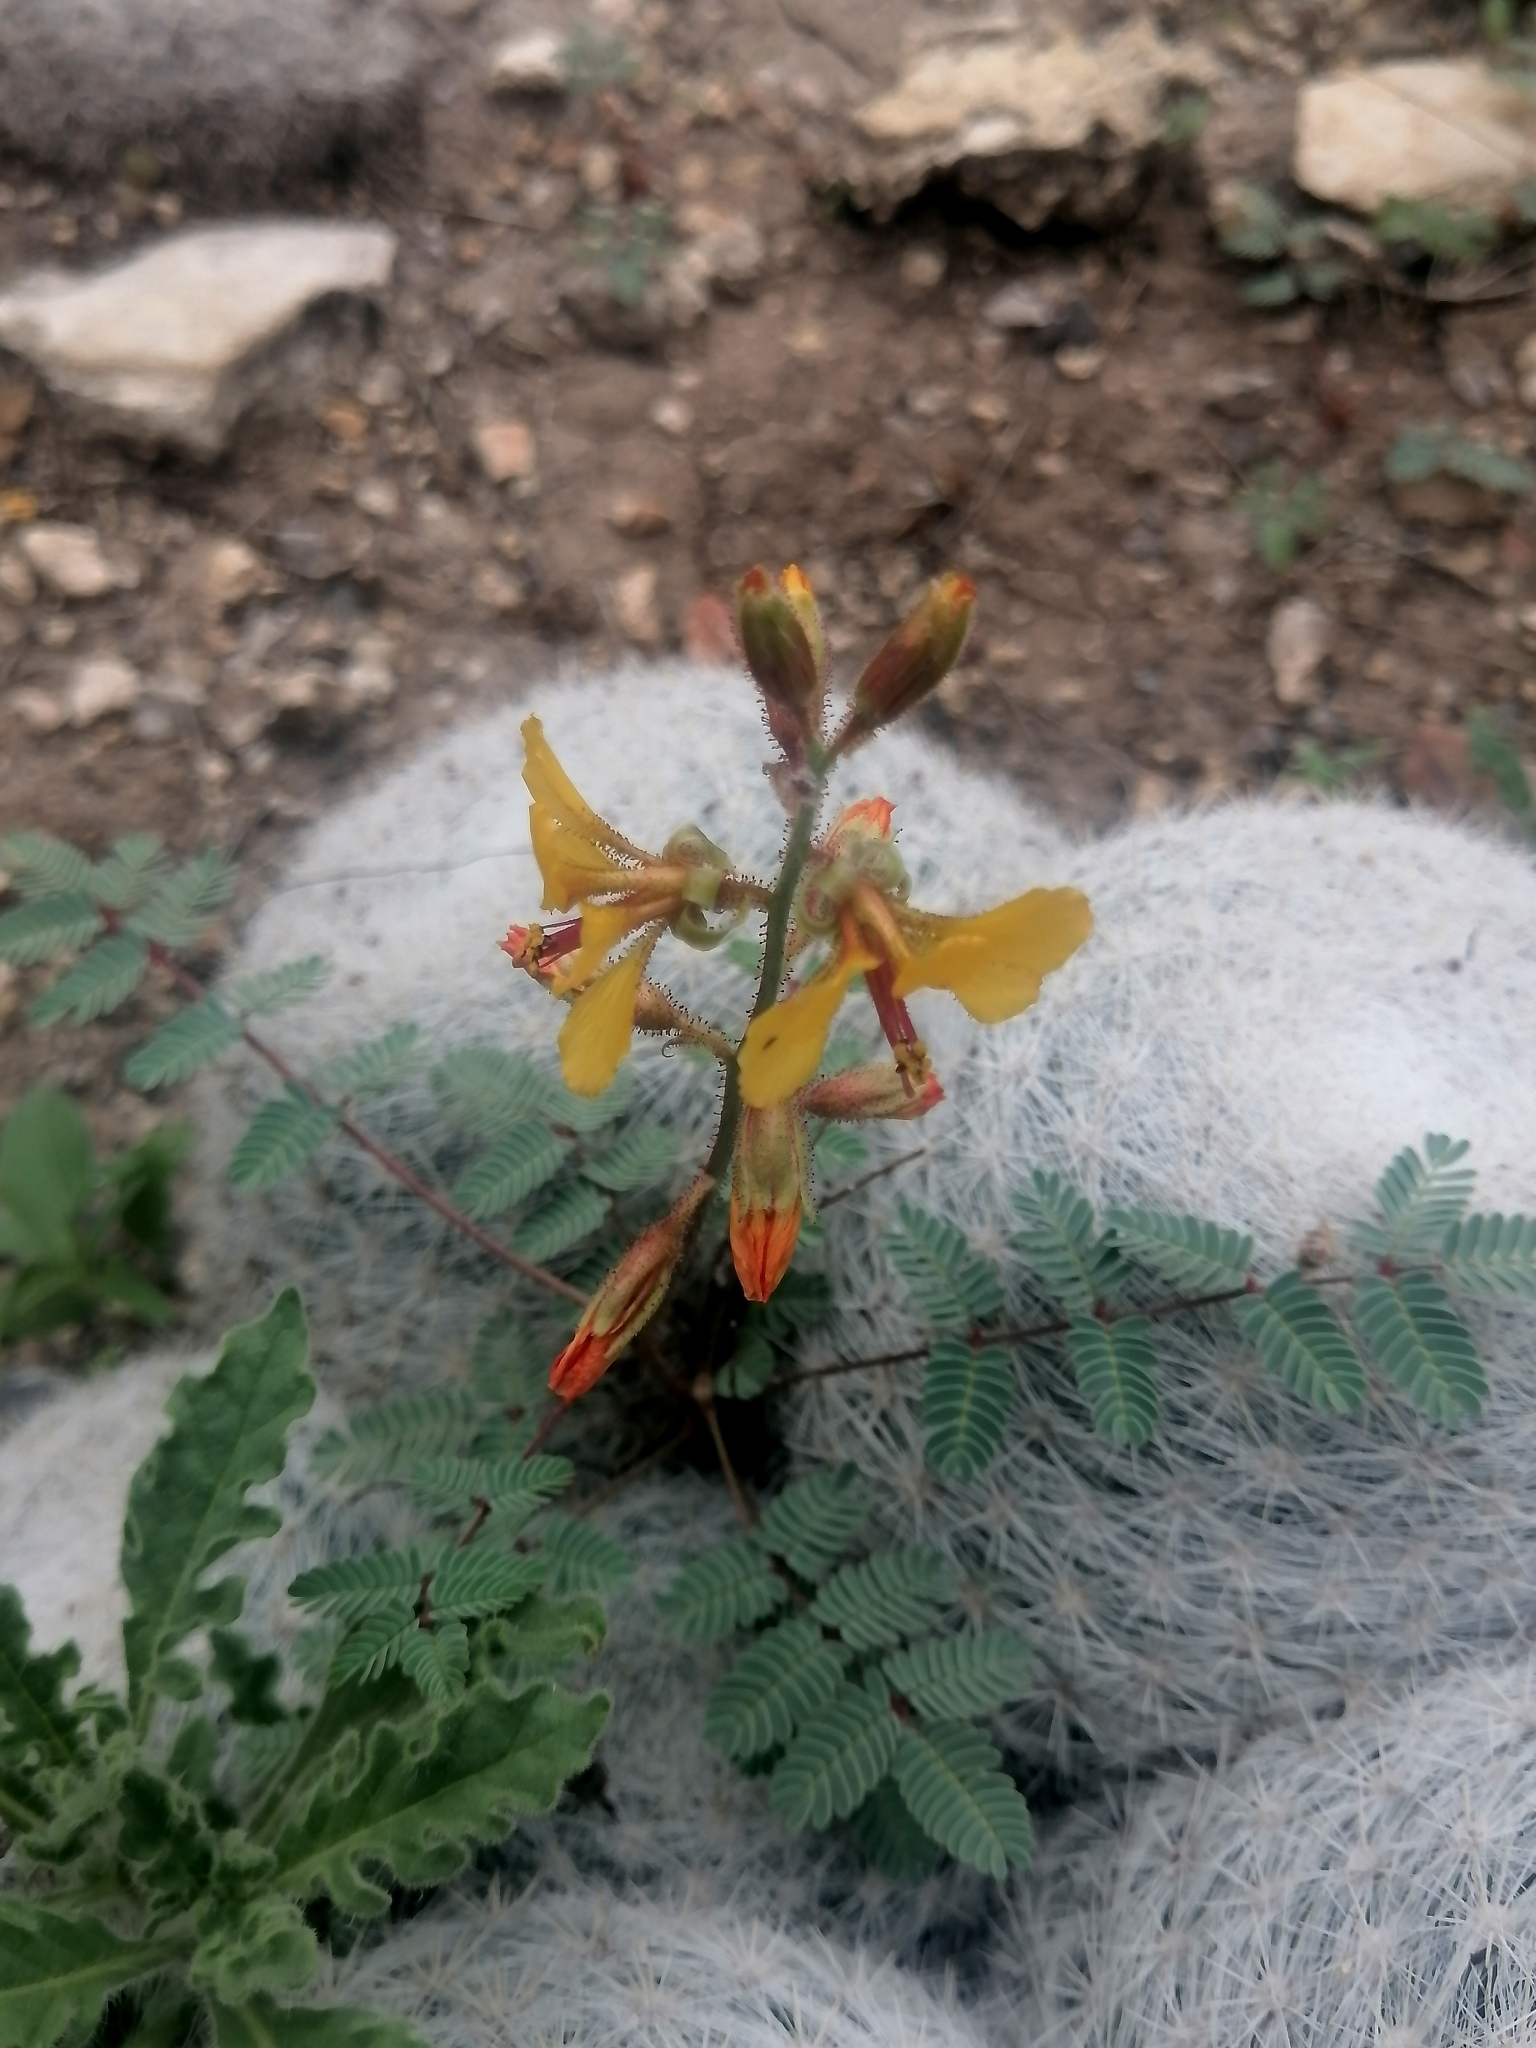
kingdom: Plantae
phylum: Tracheophyta
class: Magnoliopsida
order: Fabales
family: Fabaceae
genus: Hoffmannseggia
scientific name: Hoffmannseggia glauca
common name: Pignut
